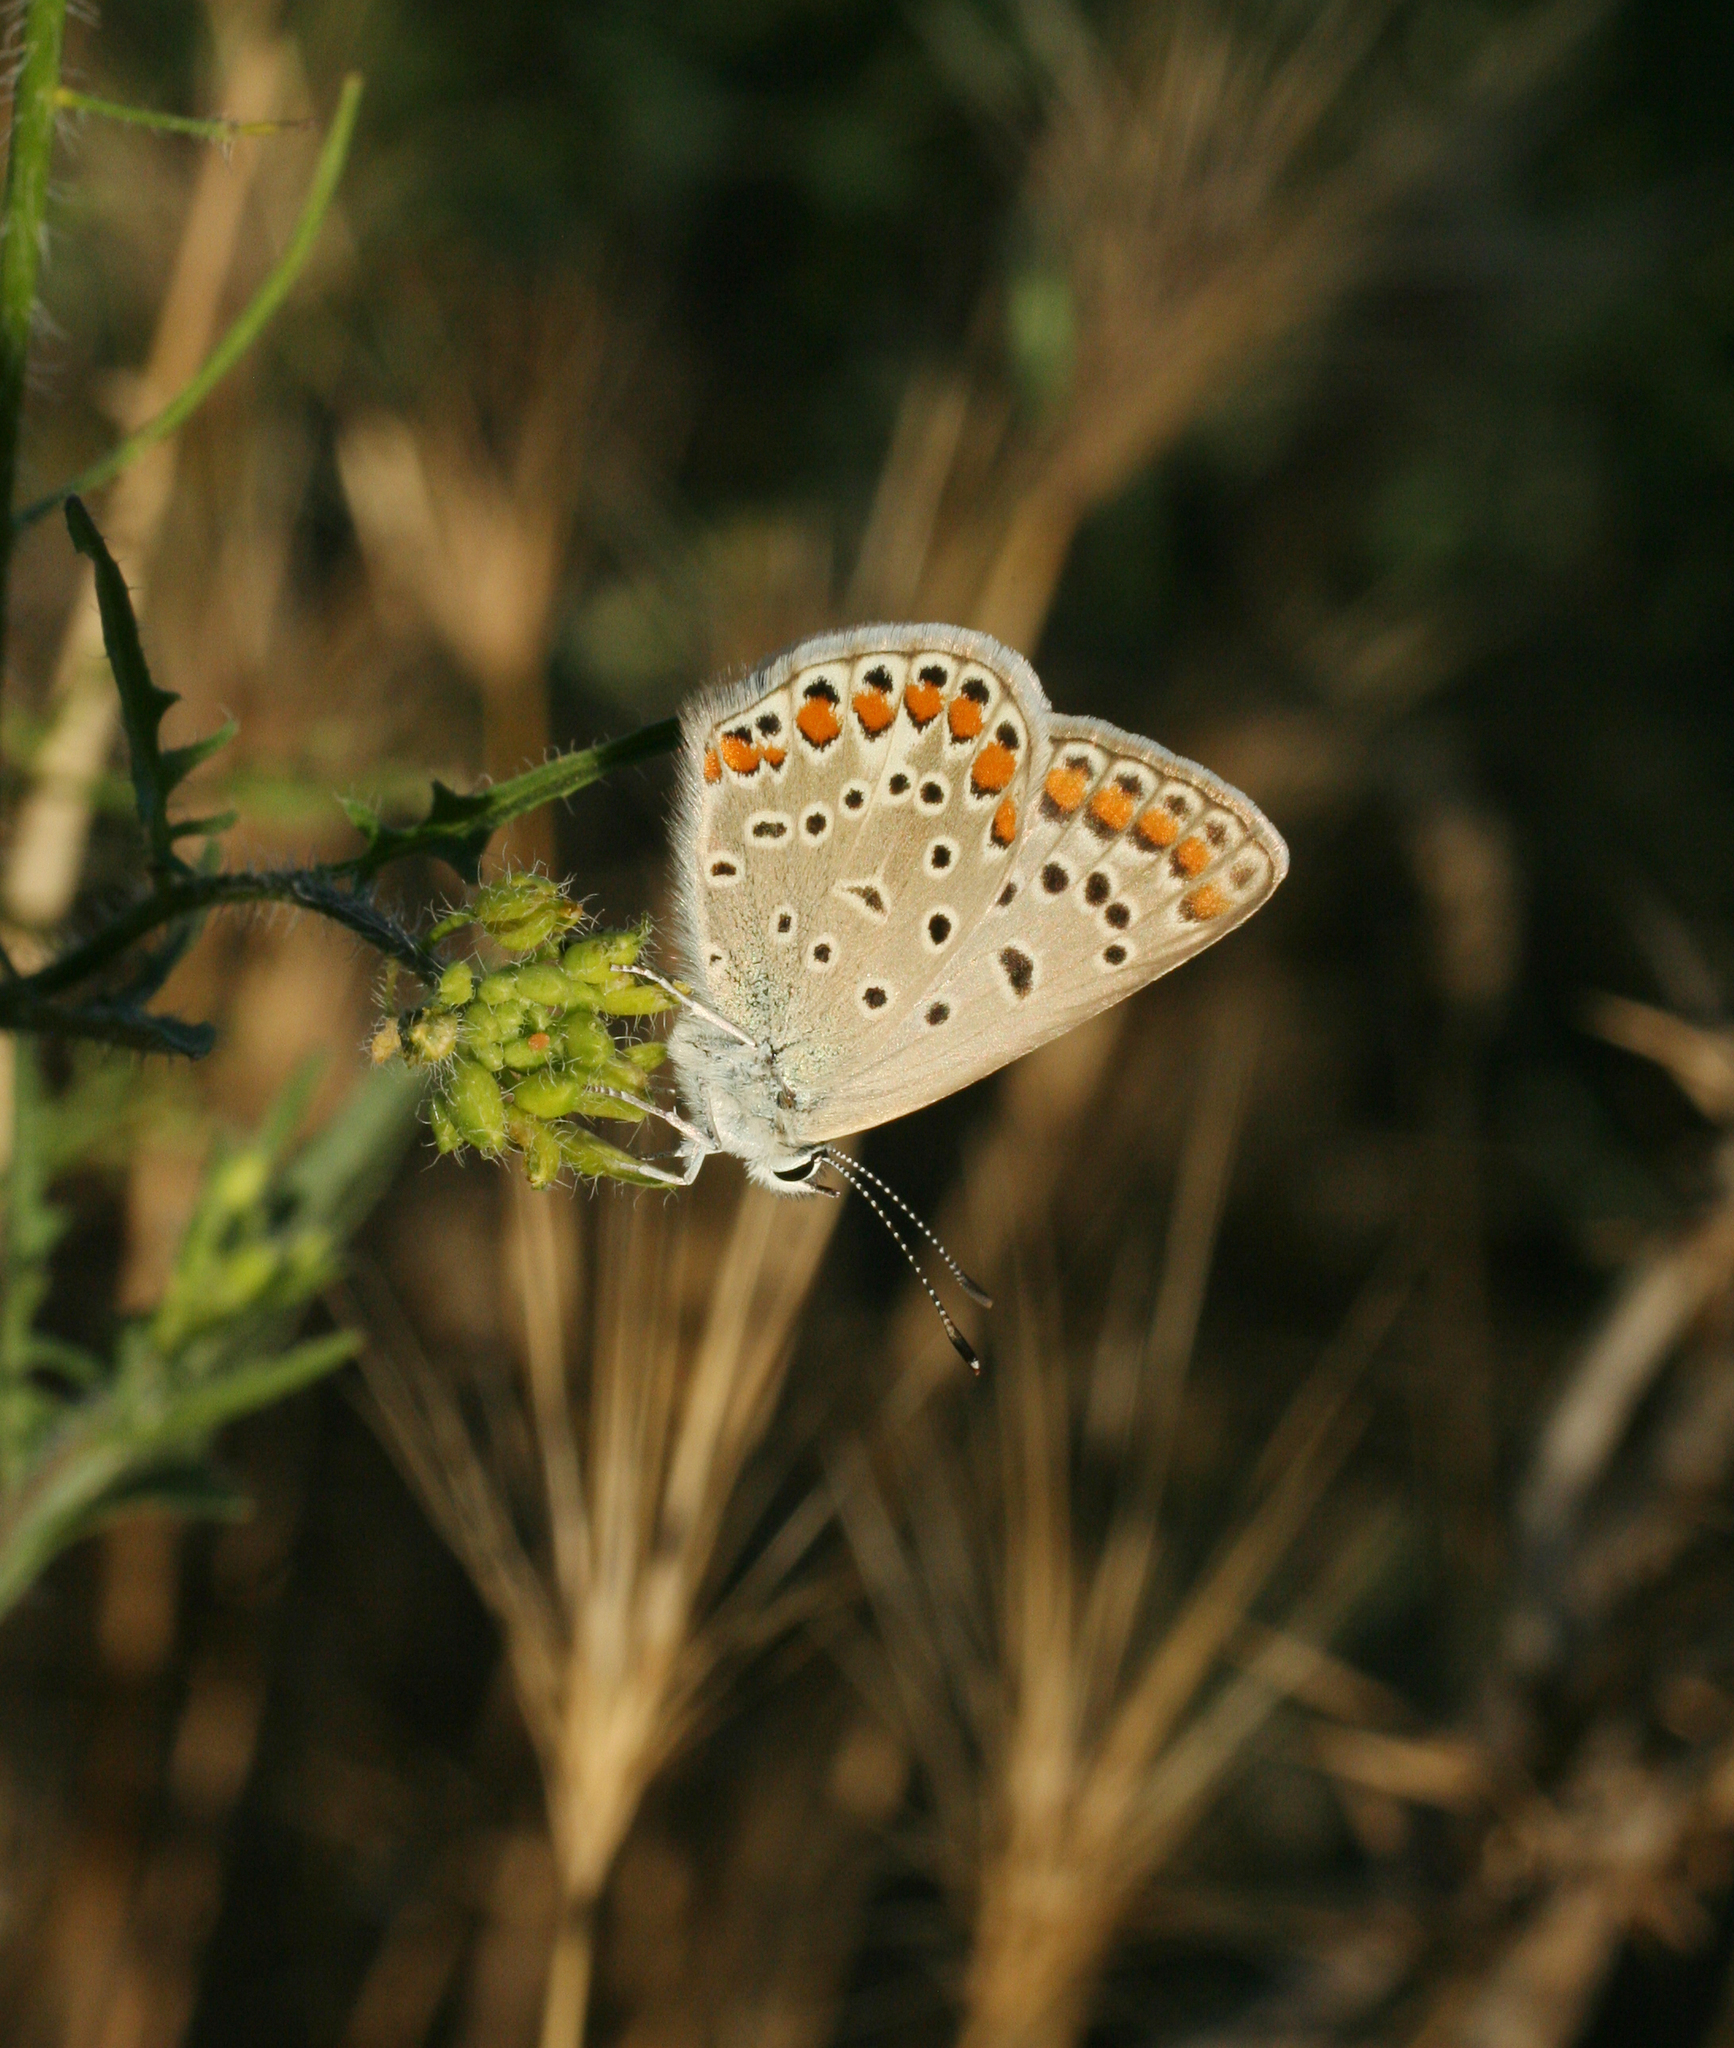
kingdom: Animalia
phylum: Arthropoda
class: Insecta
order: Lepidoptera
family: Lycaenidae
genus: Polyommatus
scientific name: Polyommatus icarus
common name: Common blue
